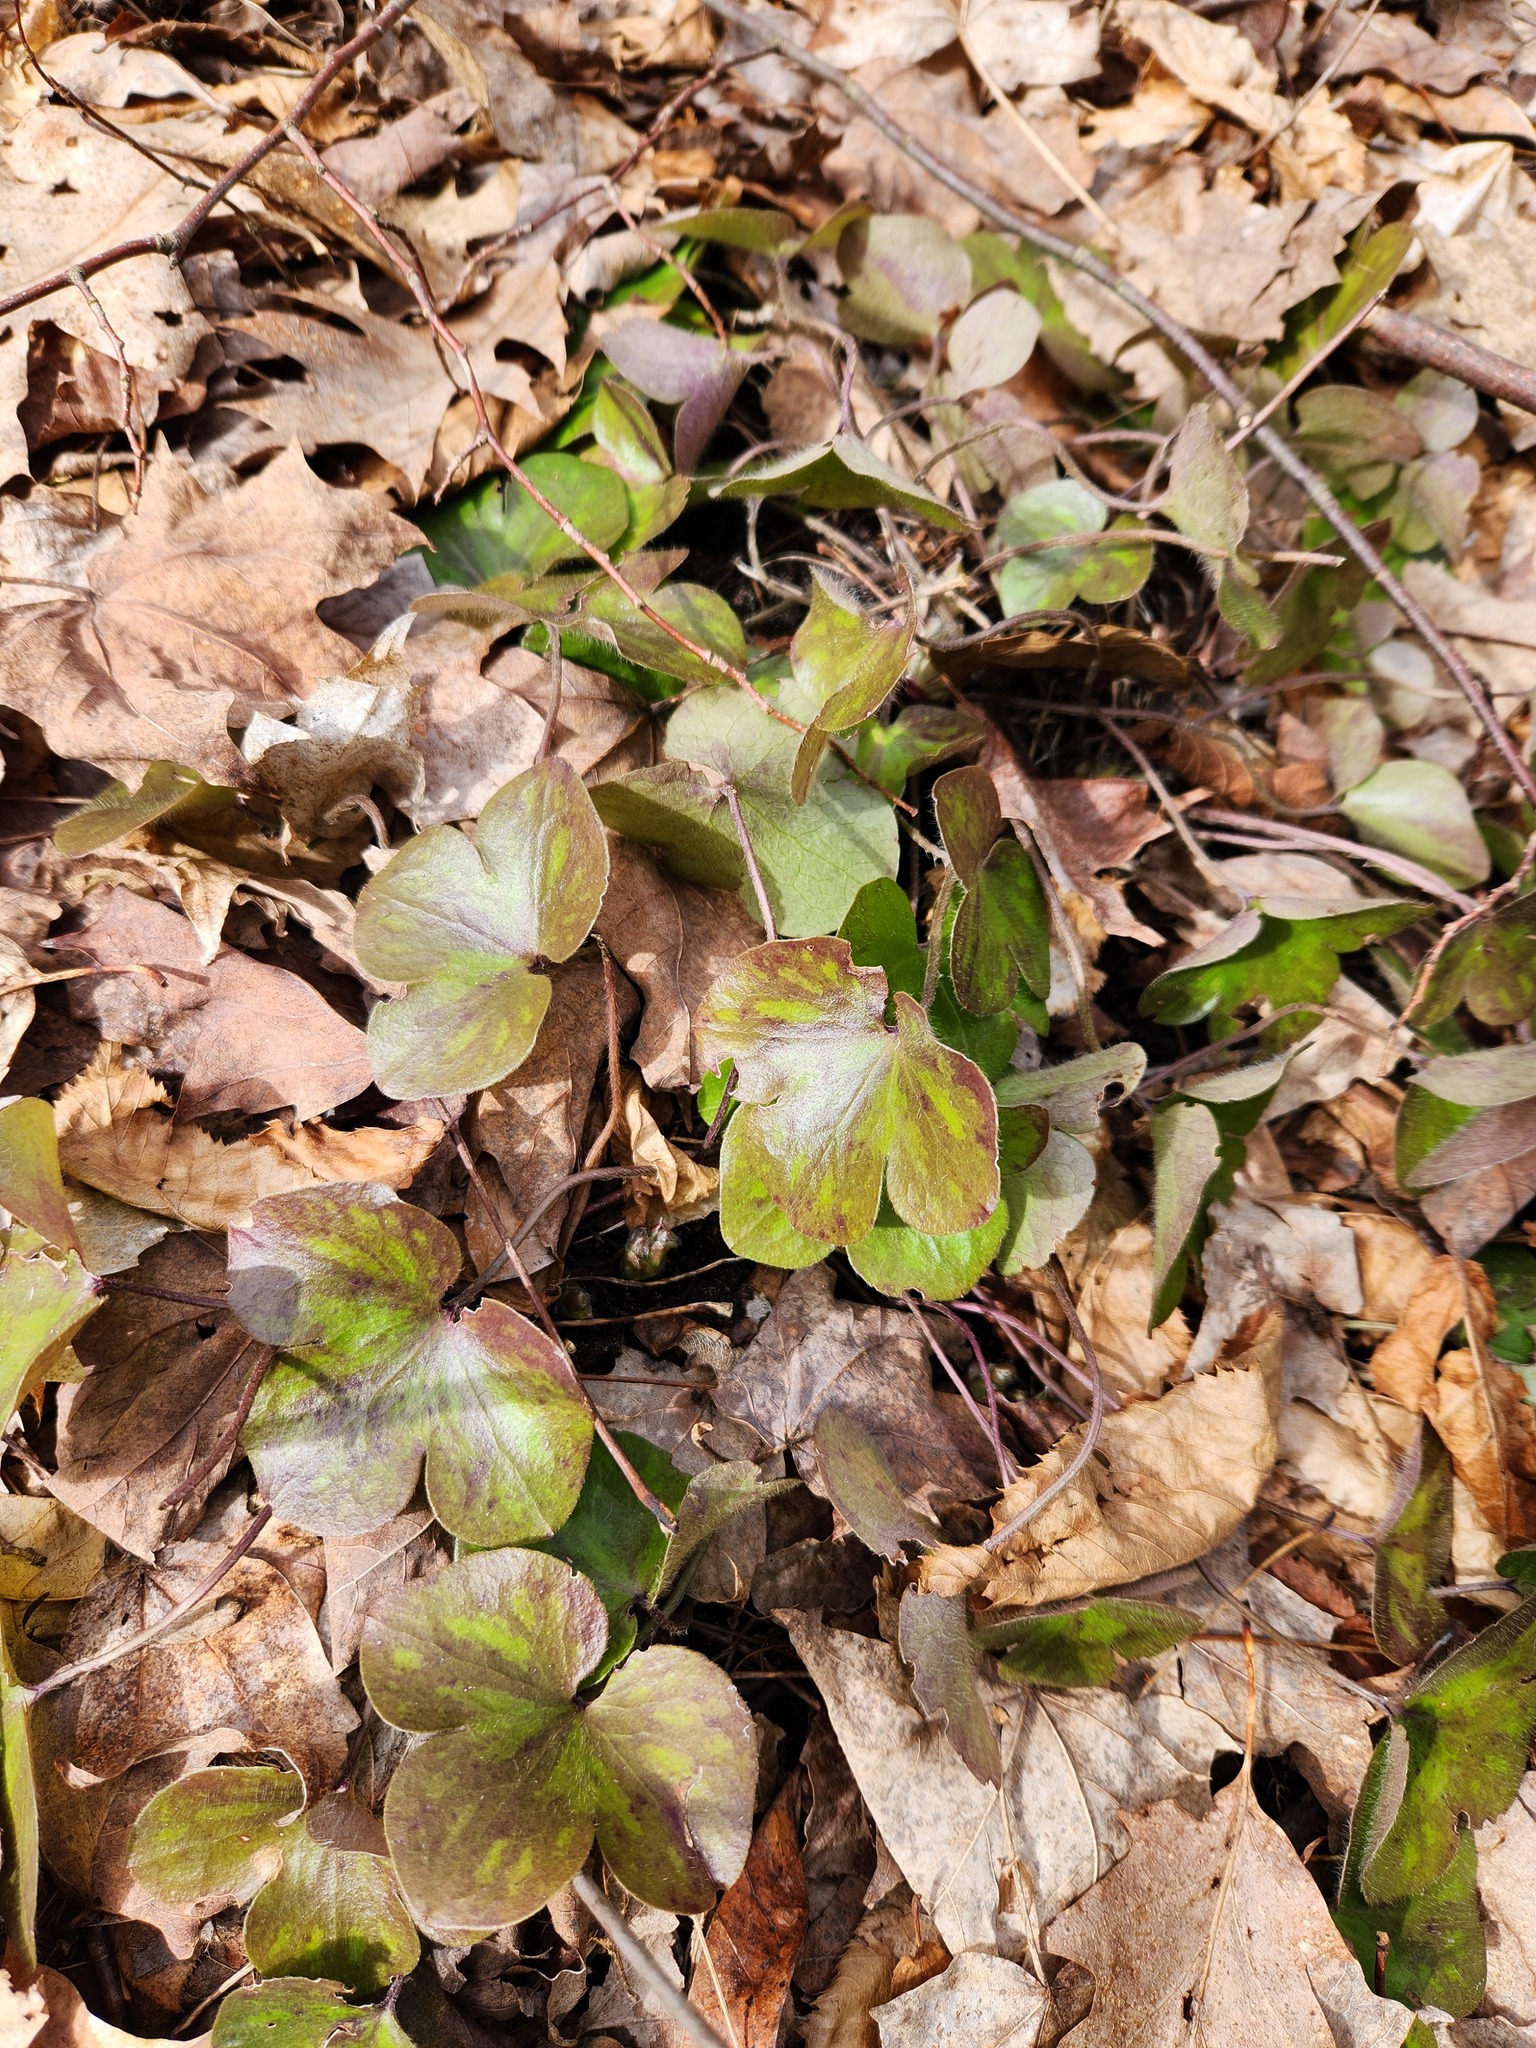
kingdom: Plantae
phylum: Tracheophyta
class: Magnoliopsida
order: Ranunculales
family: Ranunculaceae
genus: Hepatica
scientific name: Hepatica americana
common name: American hepatica
